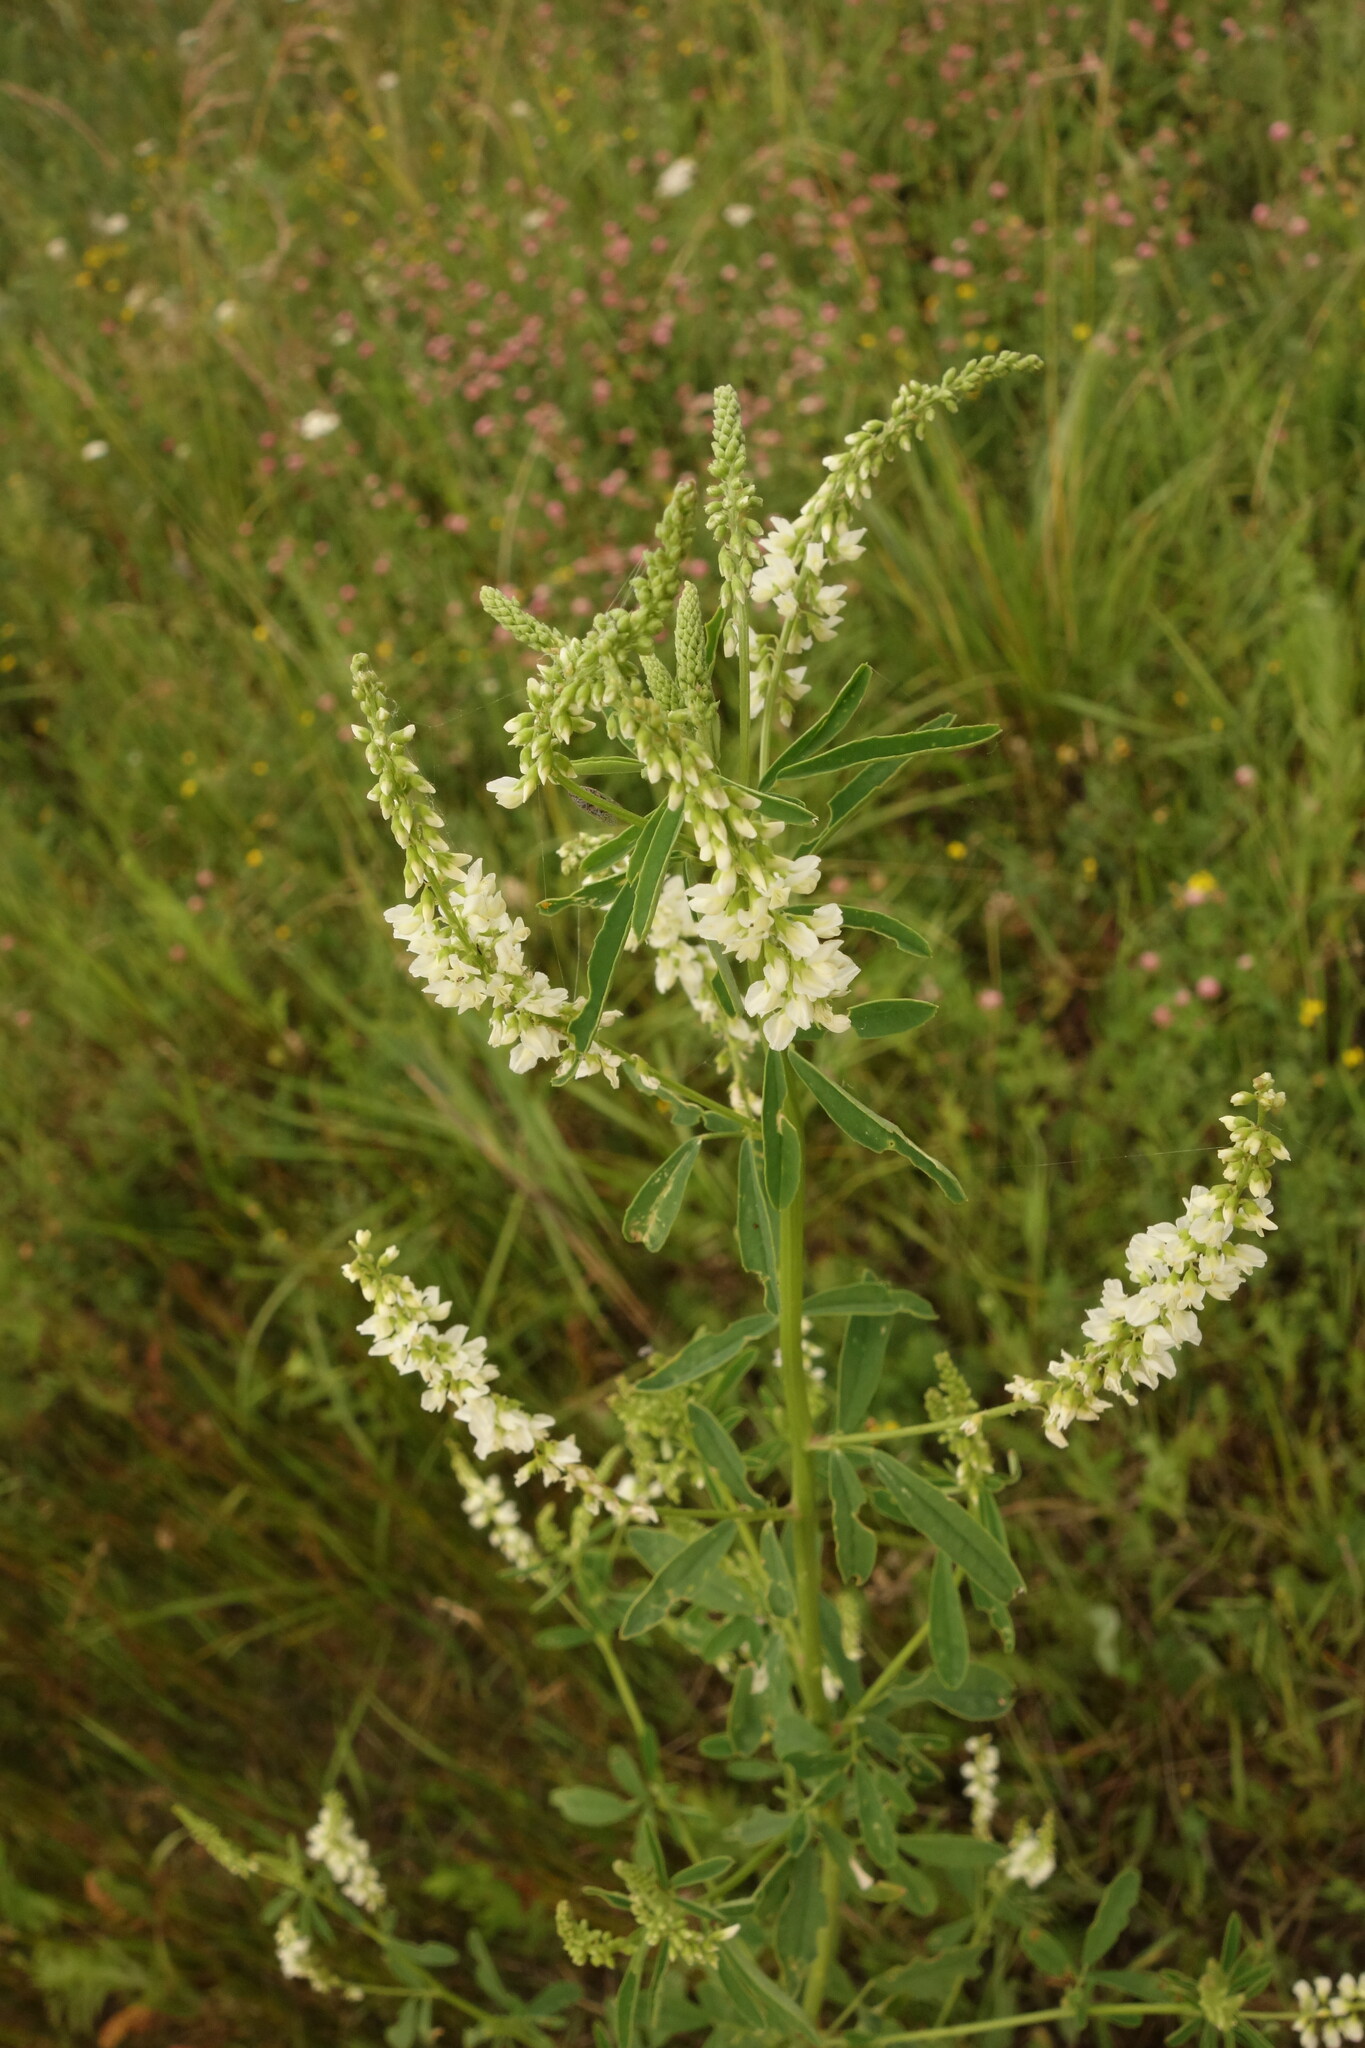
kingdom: Plantae
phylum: Tracheophyta
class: Magnoliopsida
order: Fabales
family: Fabaceae
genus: Melilotus
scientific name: Melilotus albus
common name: White melilot
